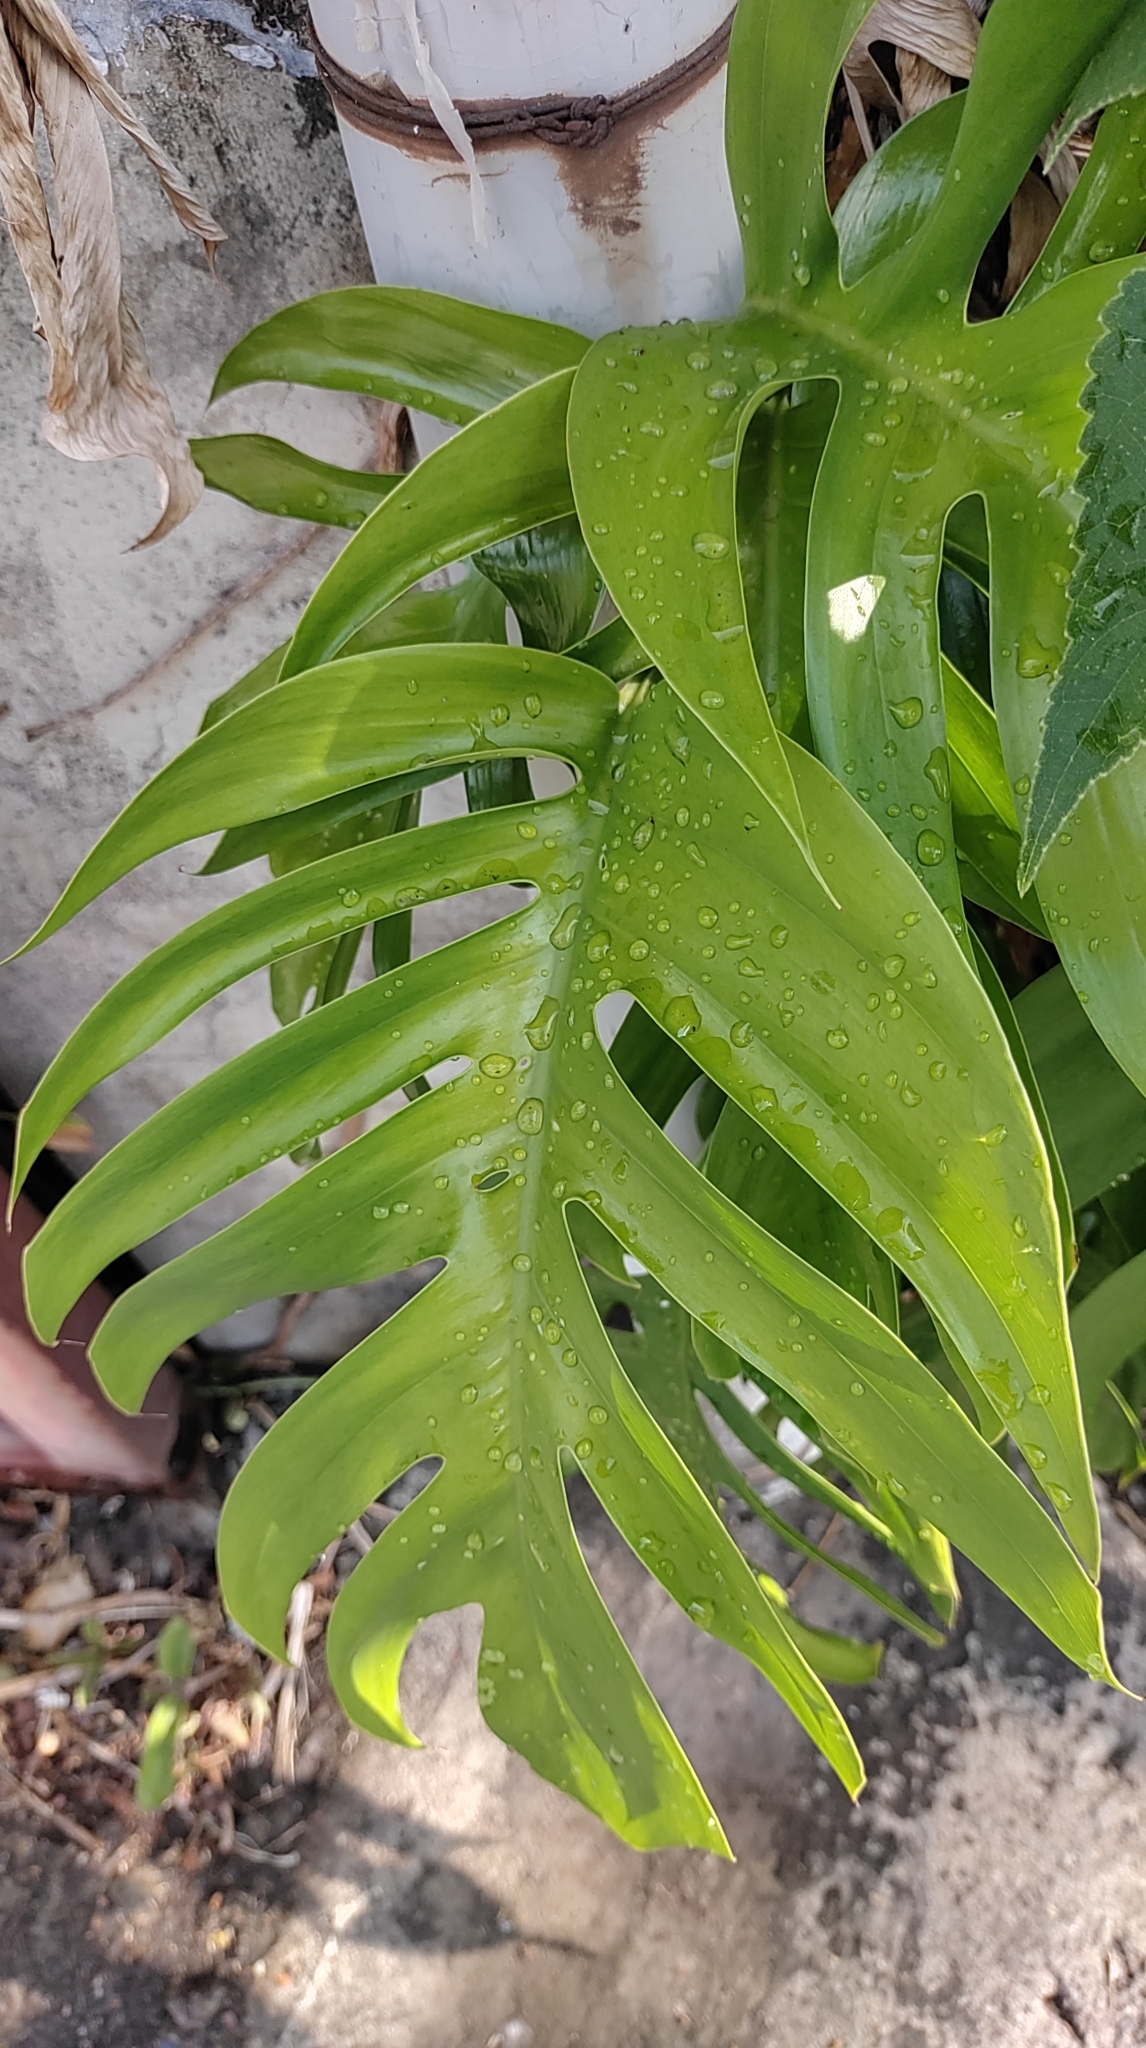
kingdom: Plantae
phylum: Tracheophyta
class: Liliopsida
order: Alismatales
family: Araceae
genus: Epipremnum
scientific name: Epipremnum pinnatum
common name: Centipede tongavine
